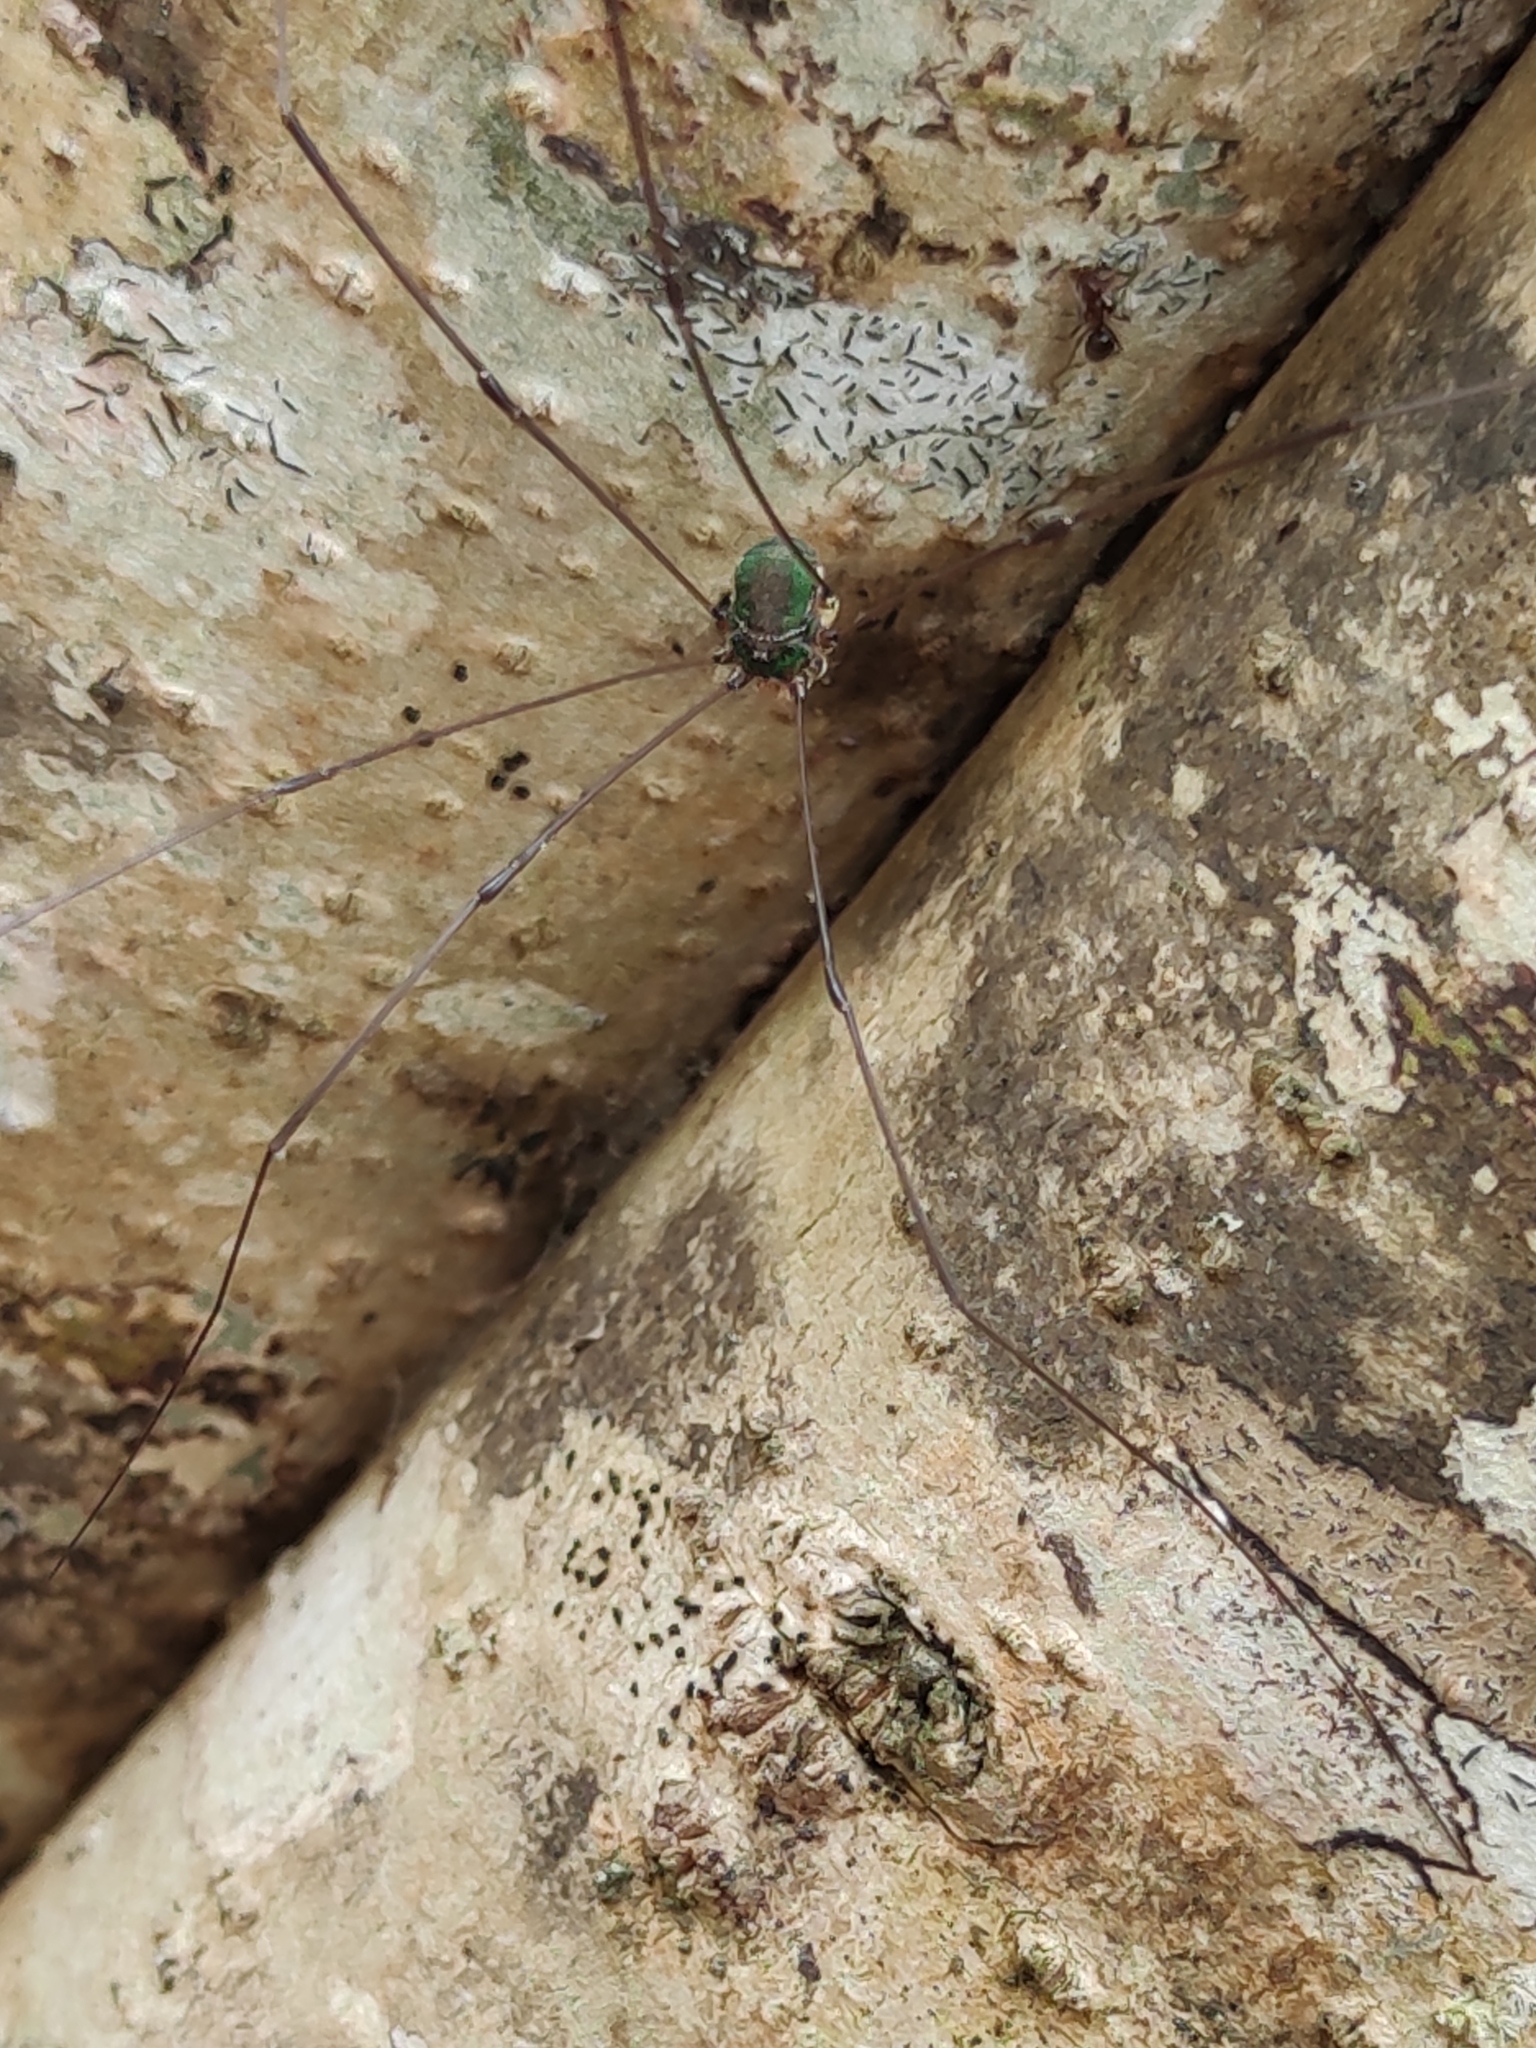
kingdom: Animalia
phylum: Arthropoda
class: Arachnida
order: Opiliones
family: Sclerosomatidae
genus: Leiobunum
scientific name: Leiobunum viridorsum
